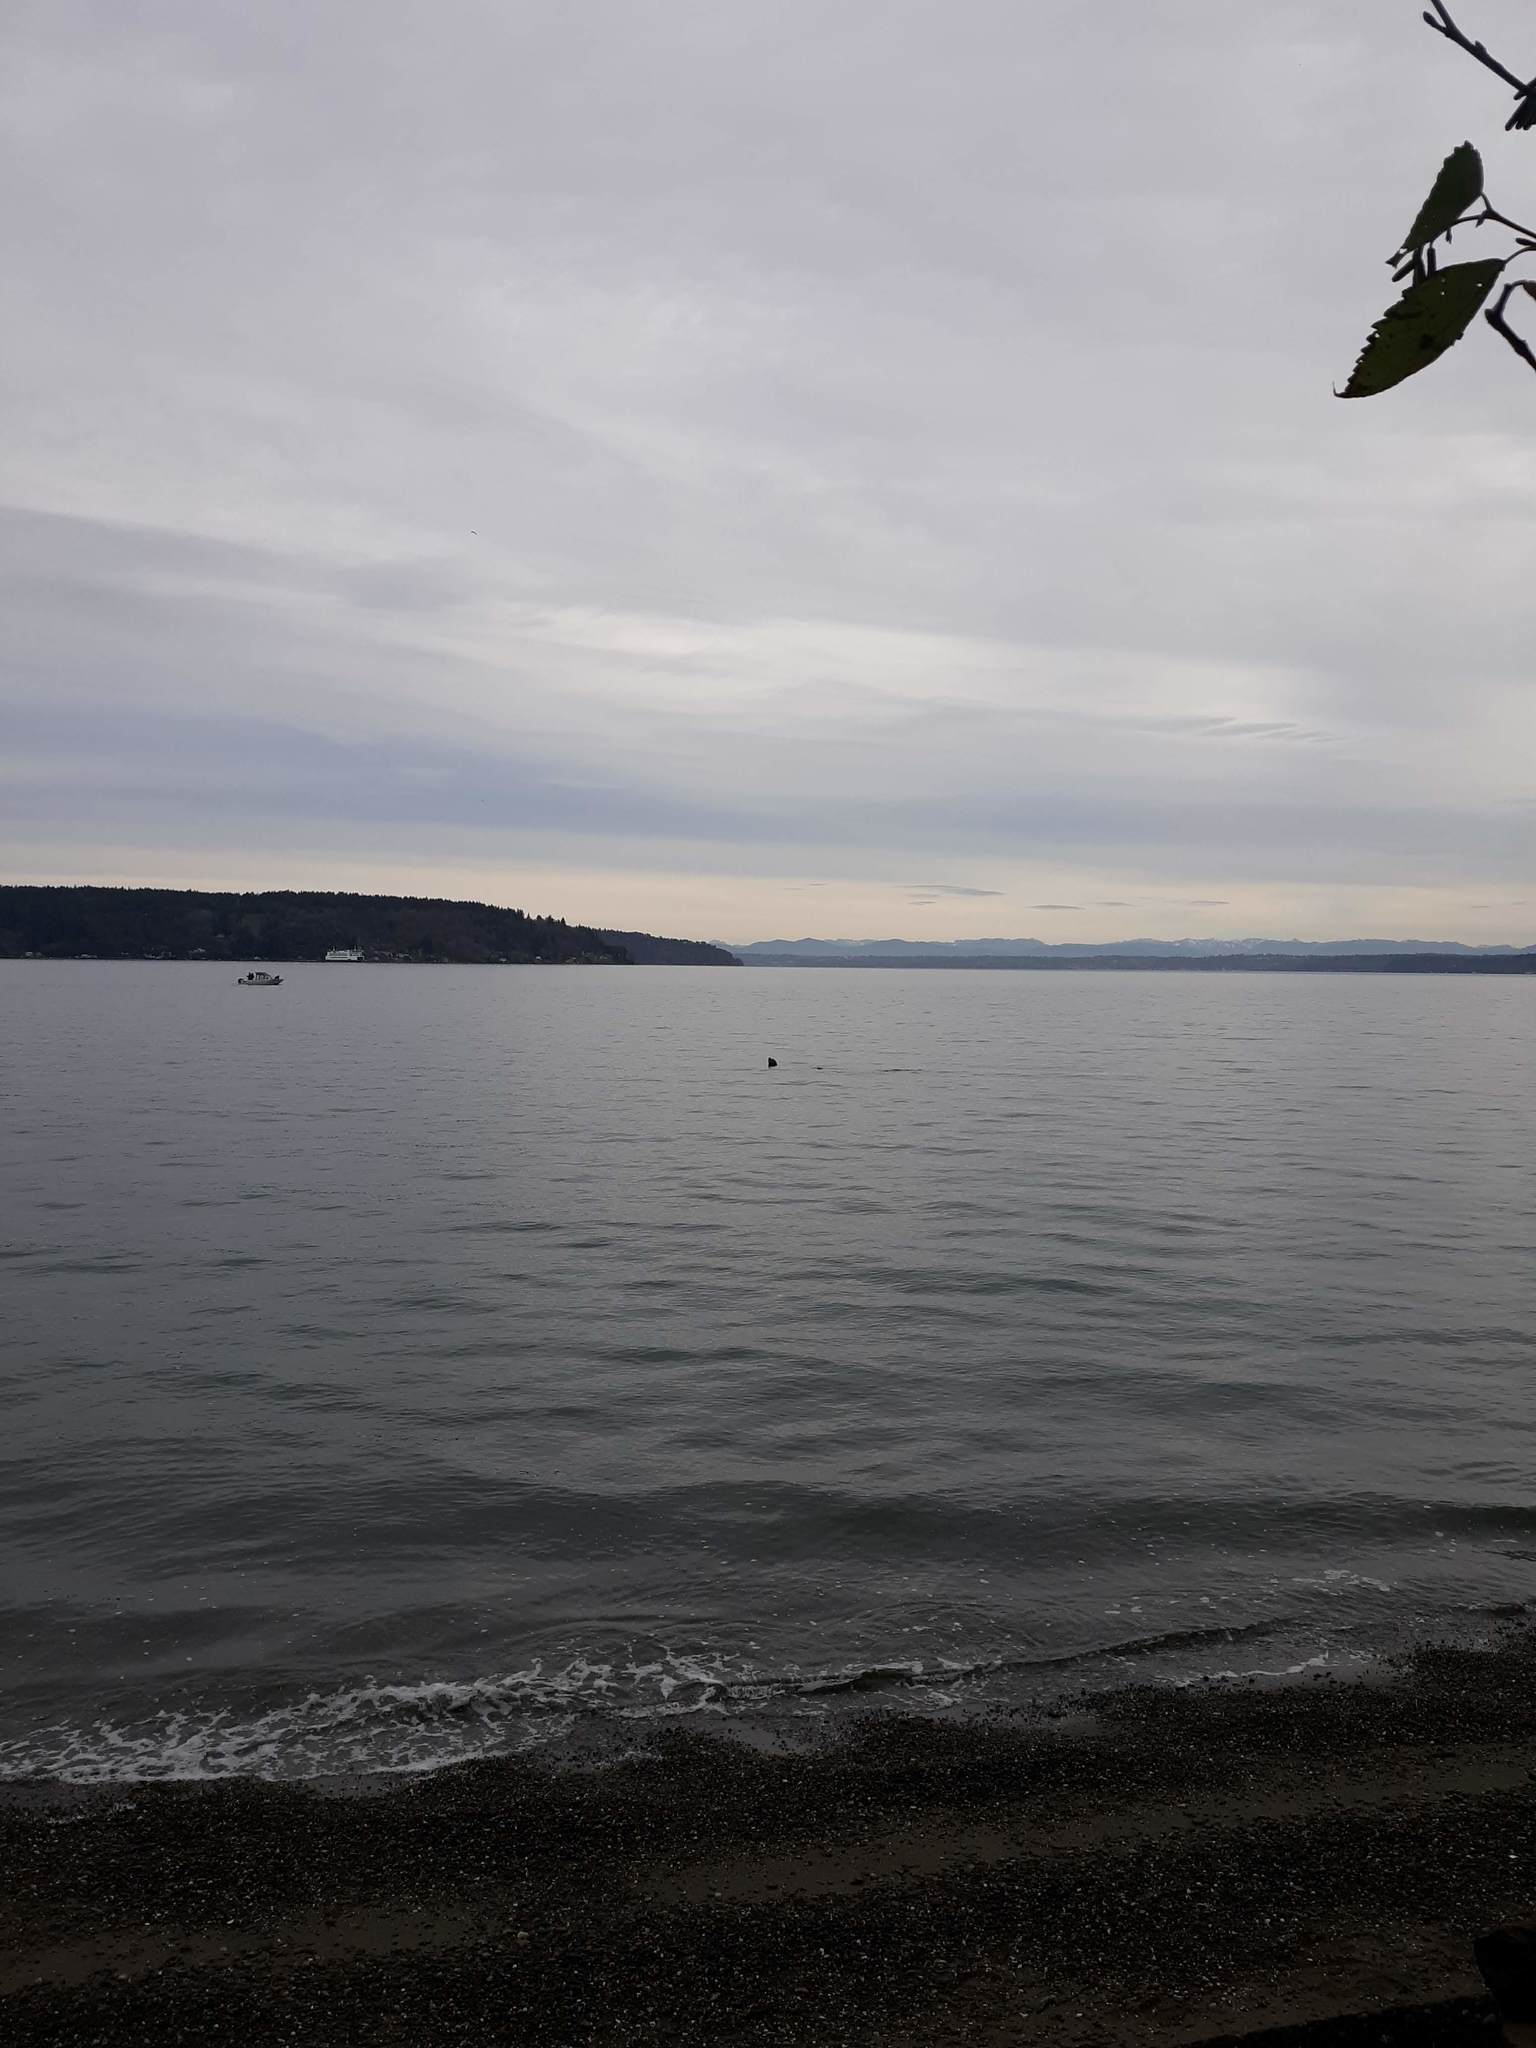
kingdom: Animalia
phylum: Chordata
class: Mammalia
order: Carnivora
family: Otariidae
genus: Zalophus
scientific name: Zalophus californianus
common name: California sea lion
